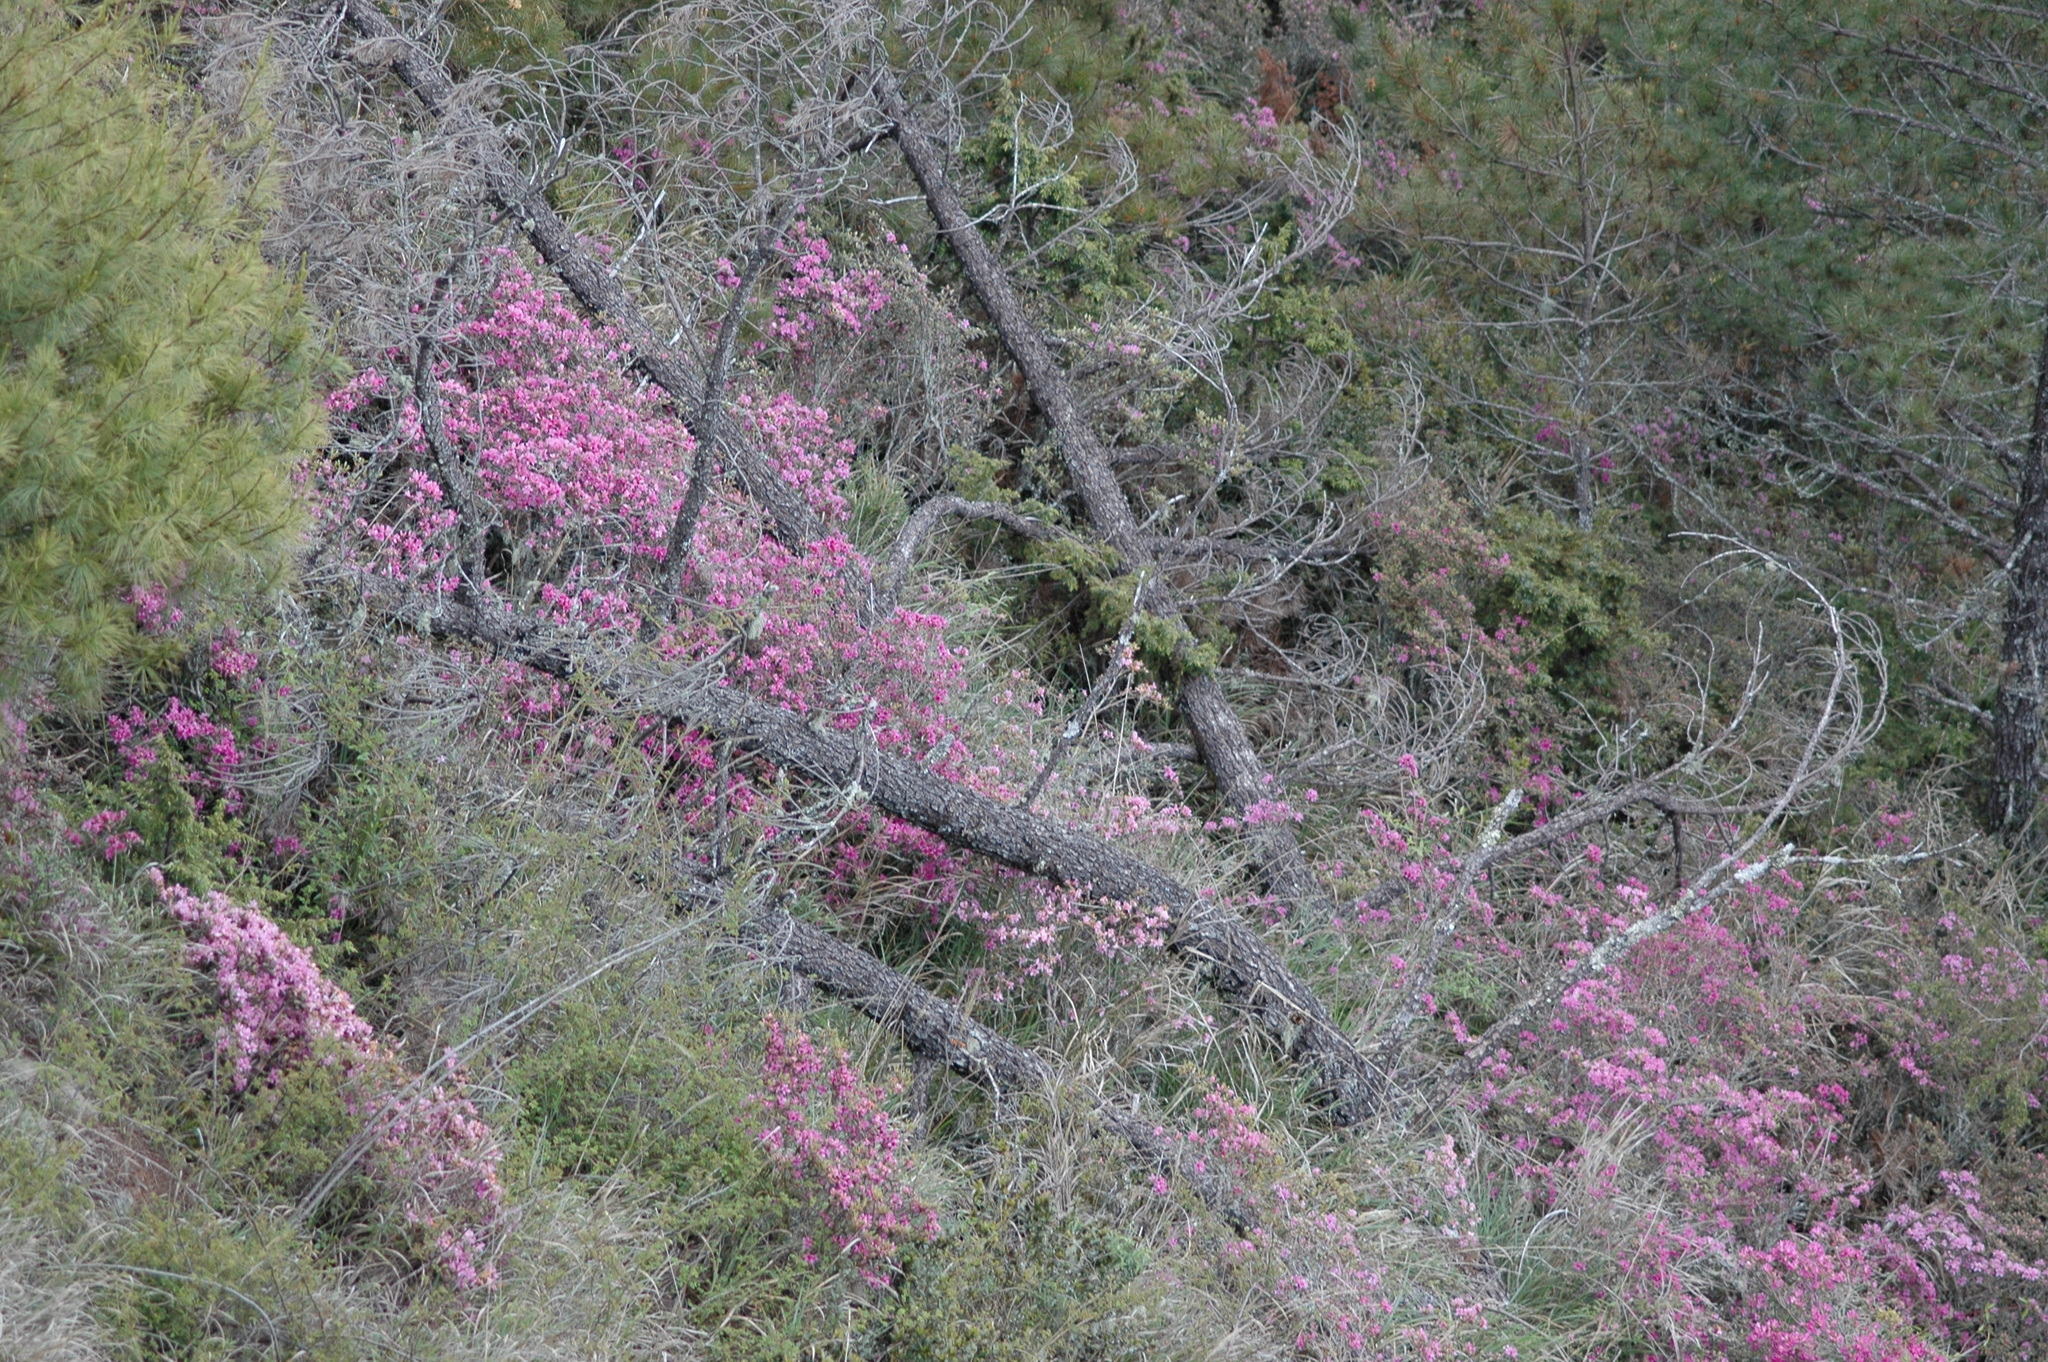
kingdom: Plantae
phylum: Tracheophyta
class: Magnoliopsida
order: Ericales
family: Ericaceae
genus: Rhododendron
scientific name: Rhododendron rubropilosum
